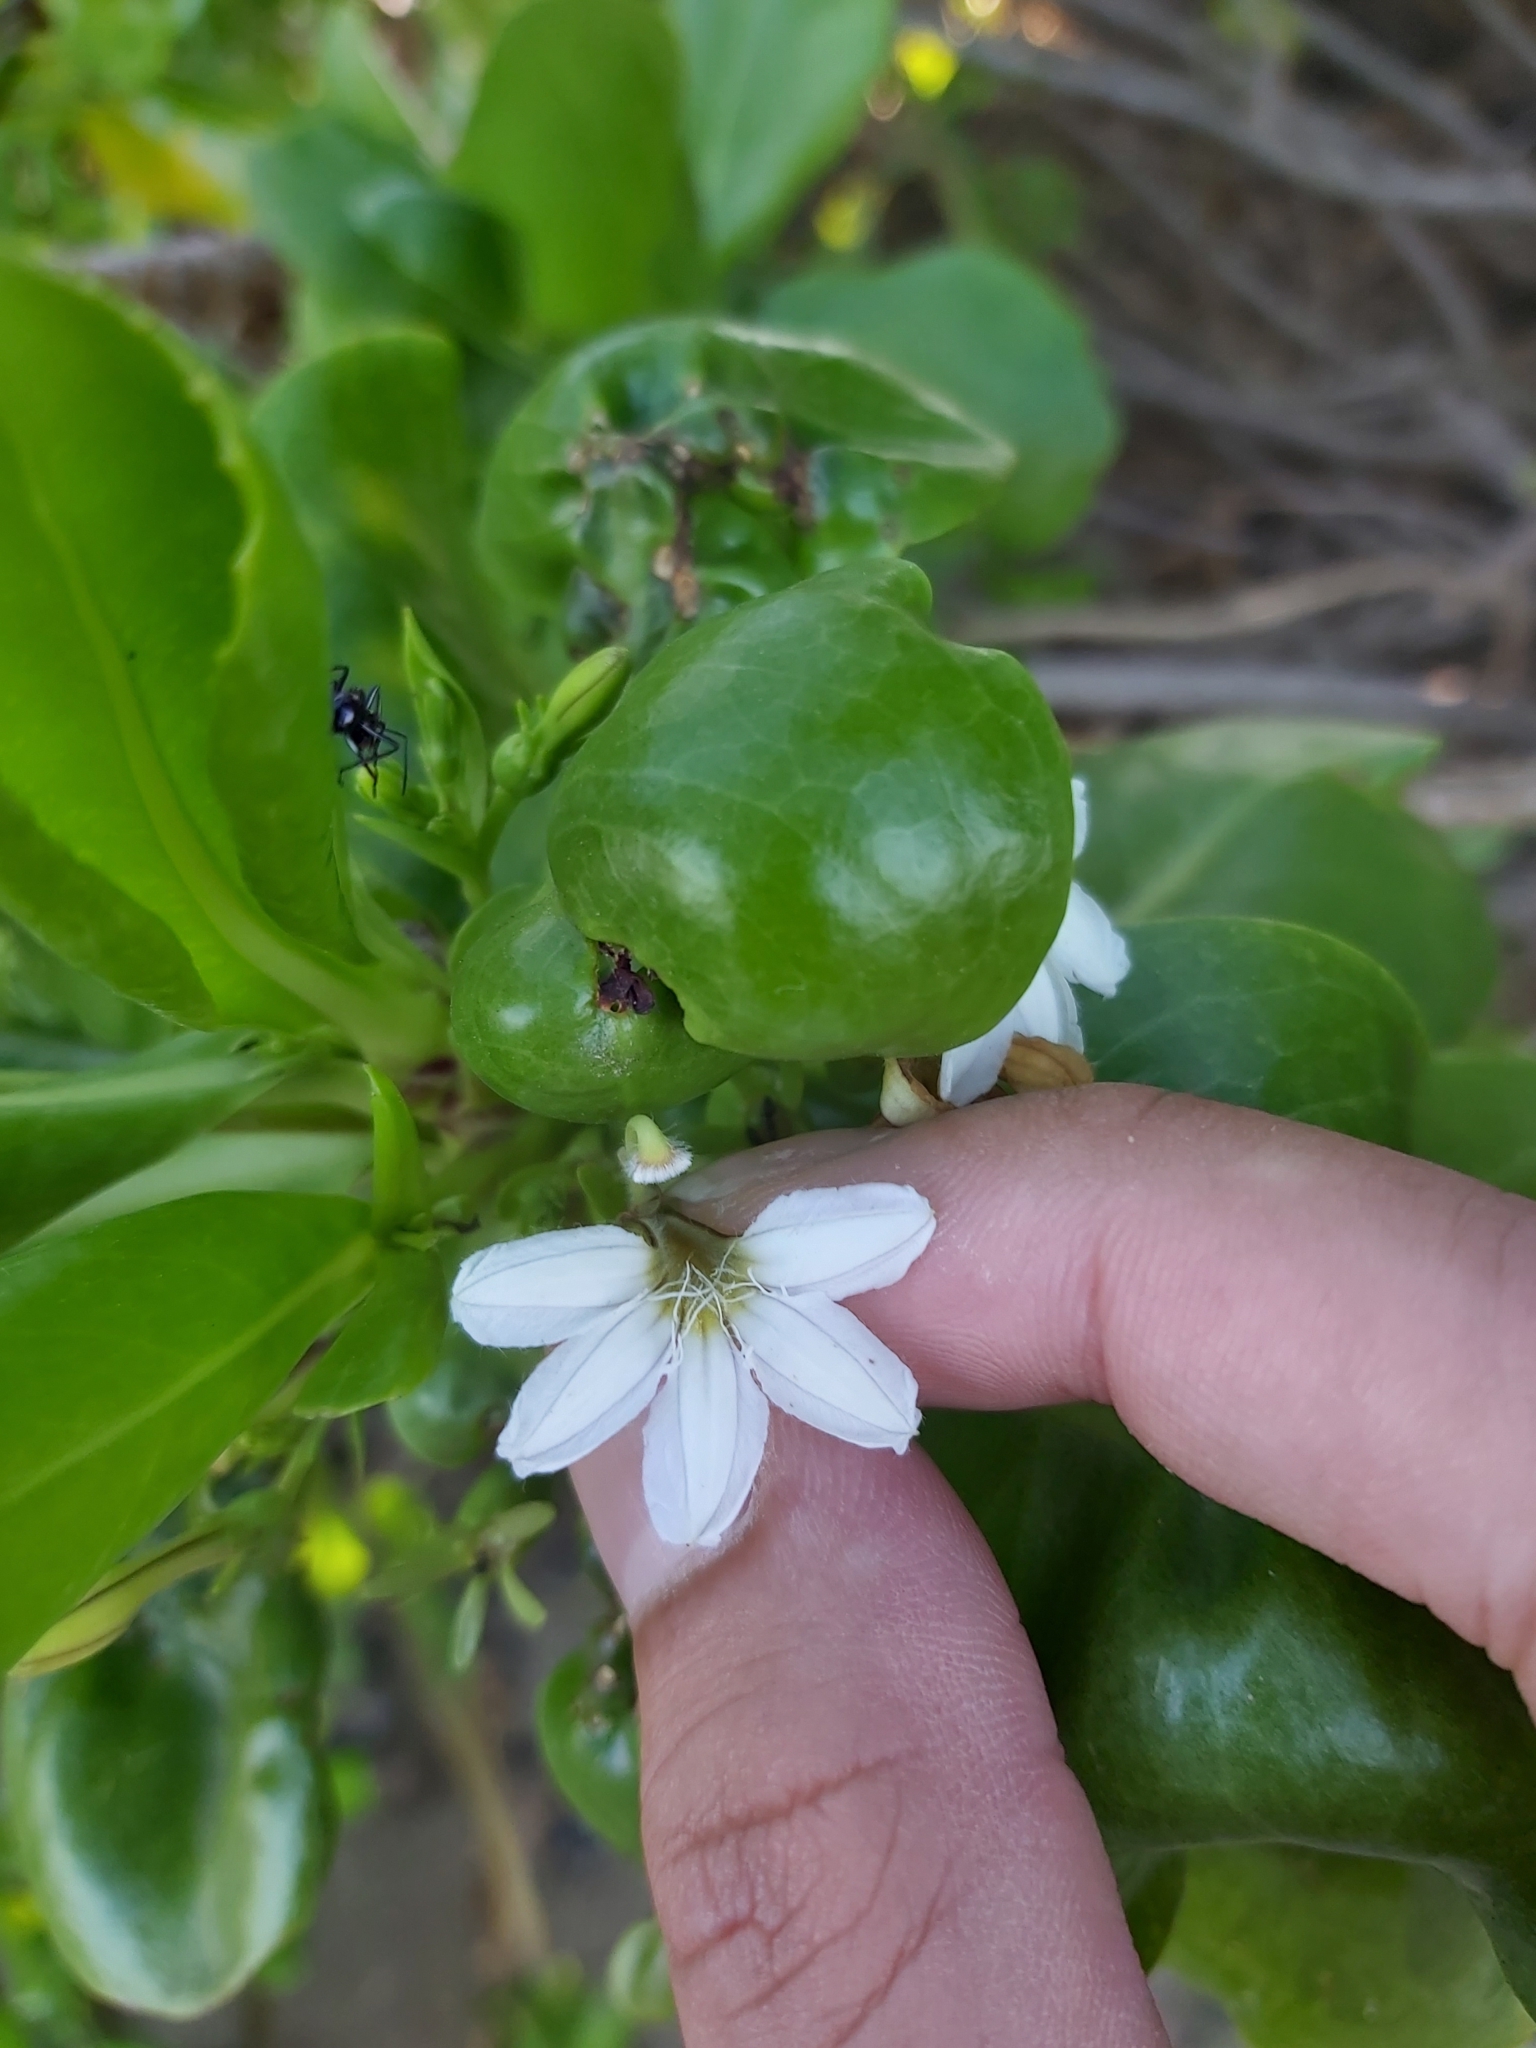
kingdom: Plantae
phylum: Tracheophyta
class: Magnoliopsida
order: Asterales
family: Goodeniaceae
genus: Scaevola
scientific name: Scaevola taccada
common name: Sea lettucetree
